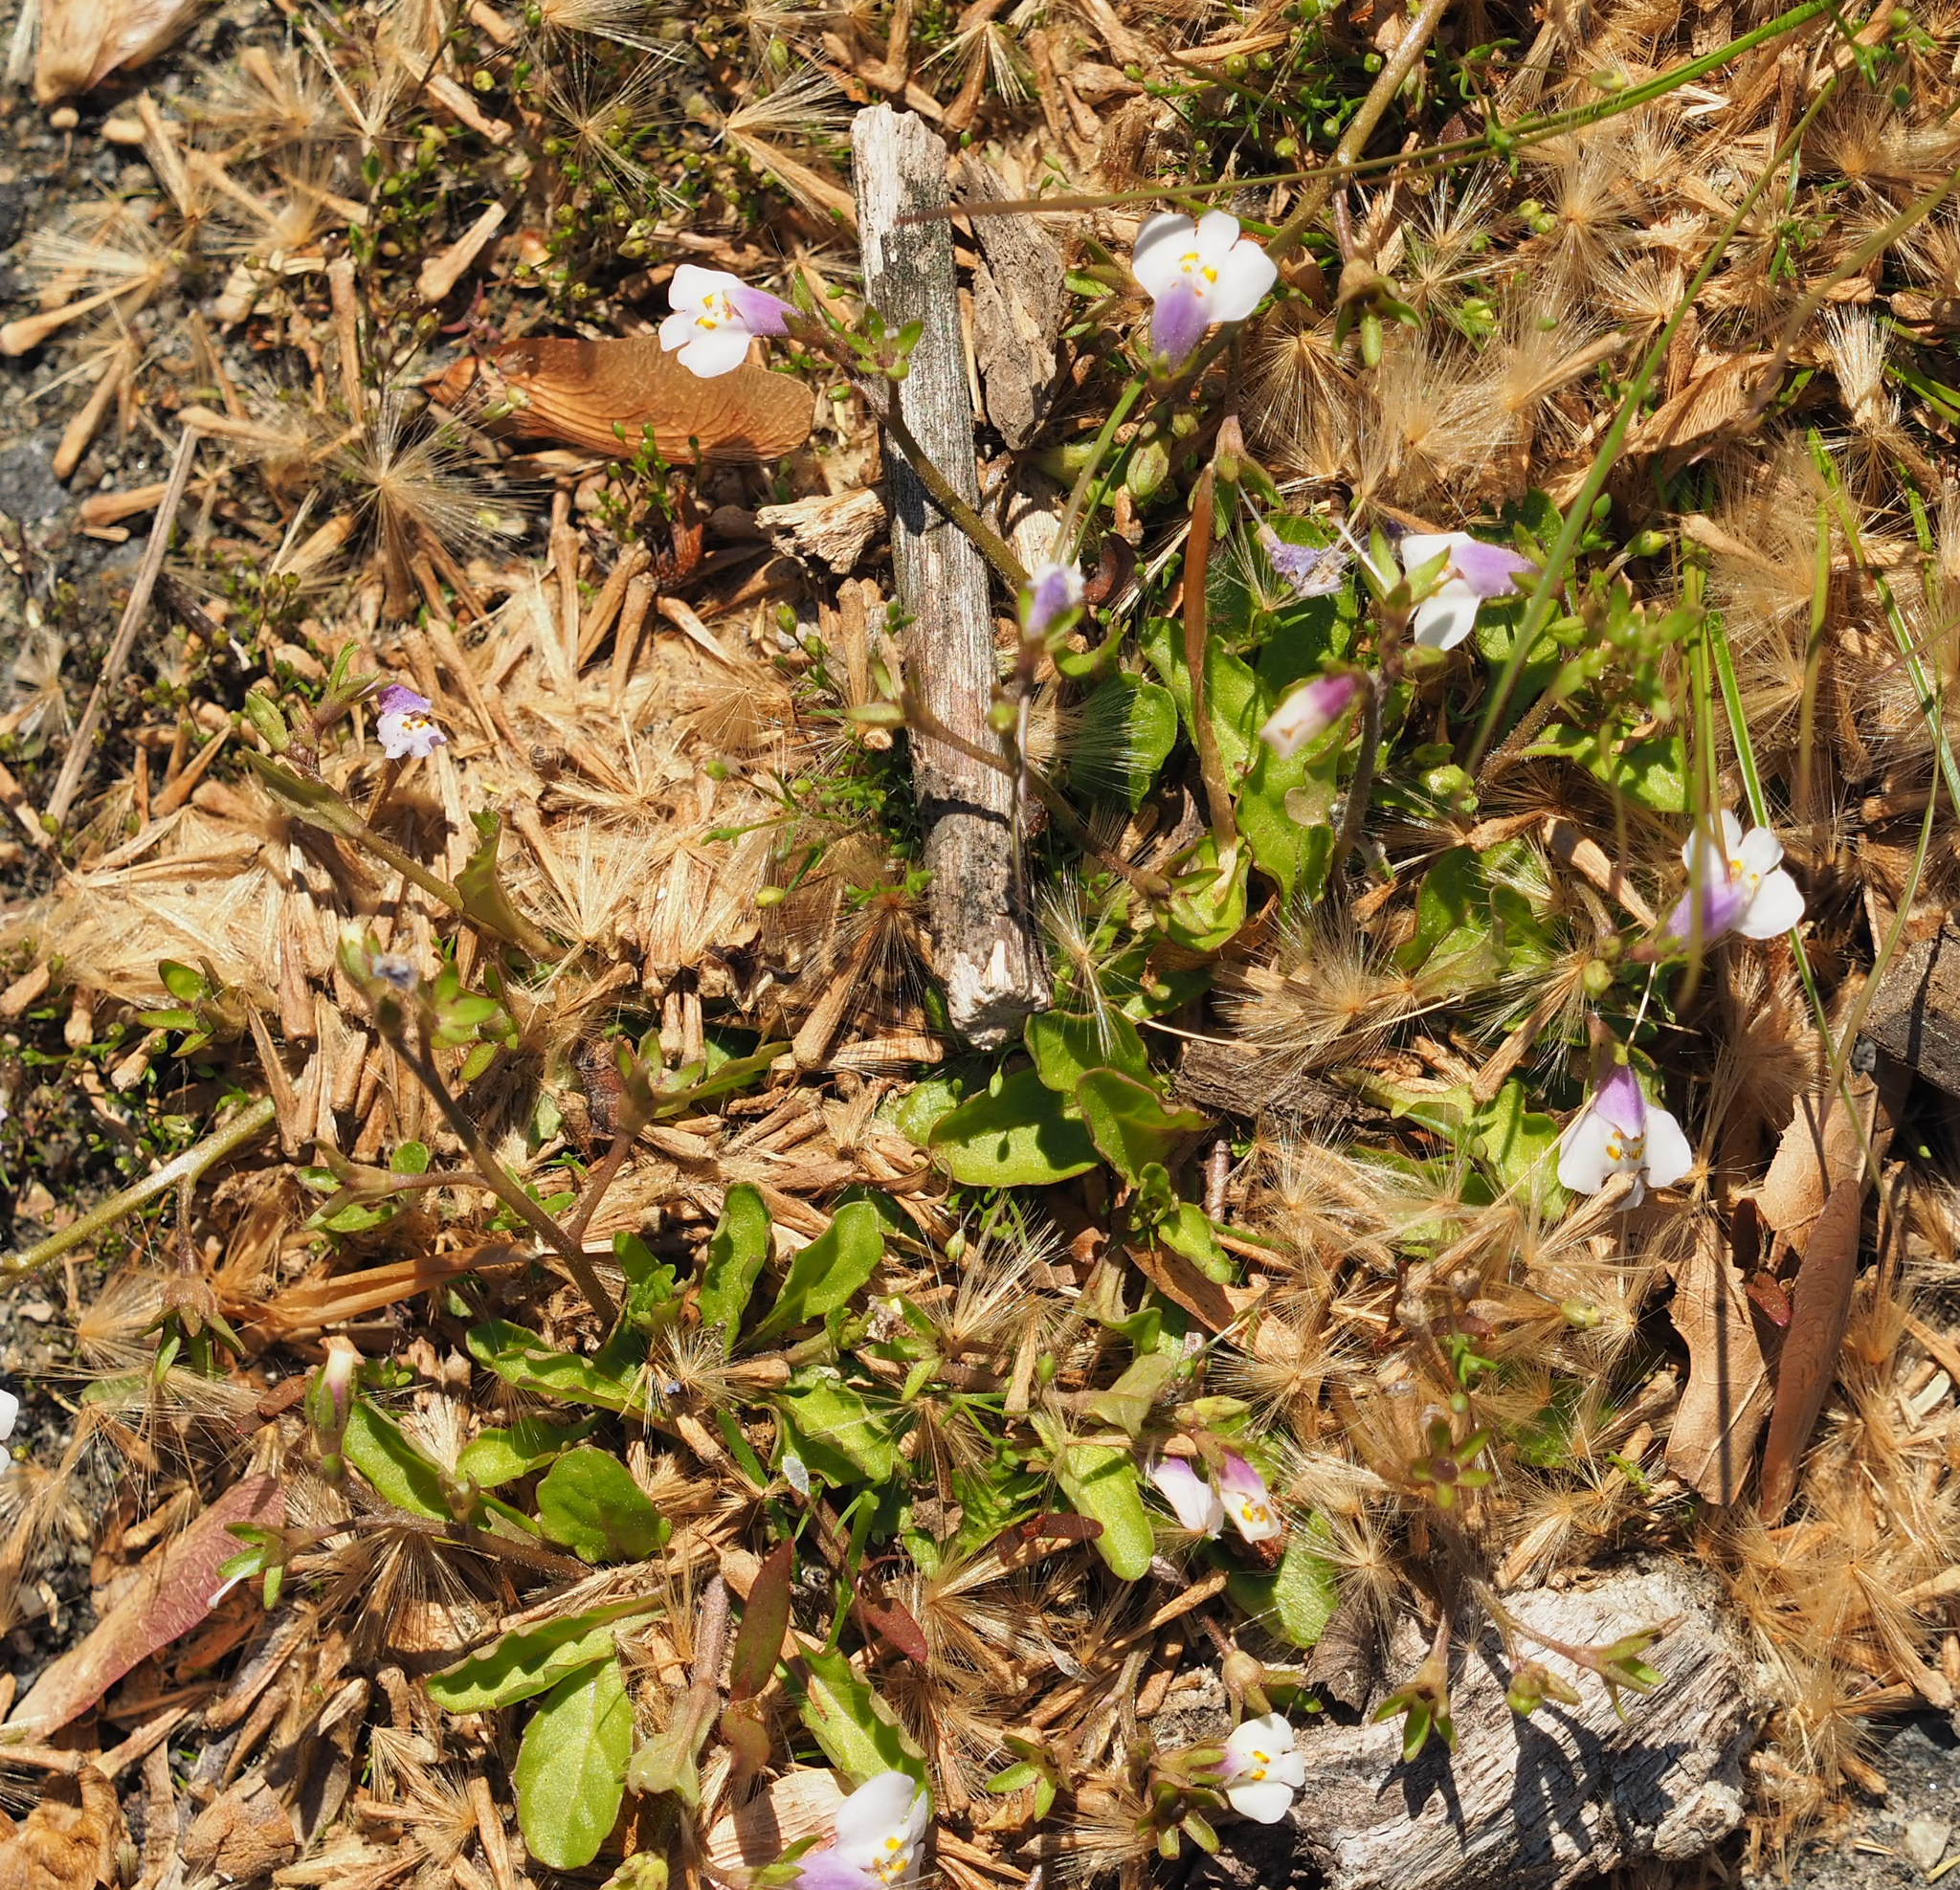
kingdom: Plantae
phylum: Tracheophyta
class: Magnoliopsida
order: Lamiales
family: Mazaceae
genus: Mazus
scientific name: Mazus pumilus
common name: Japanese mazus
